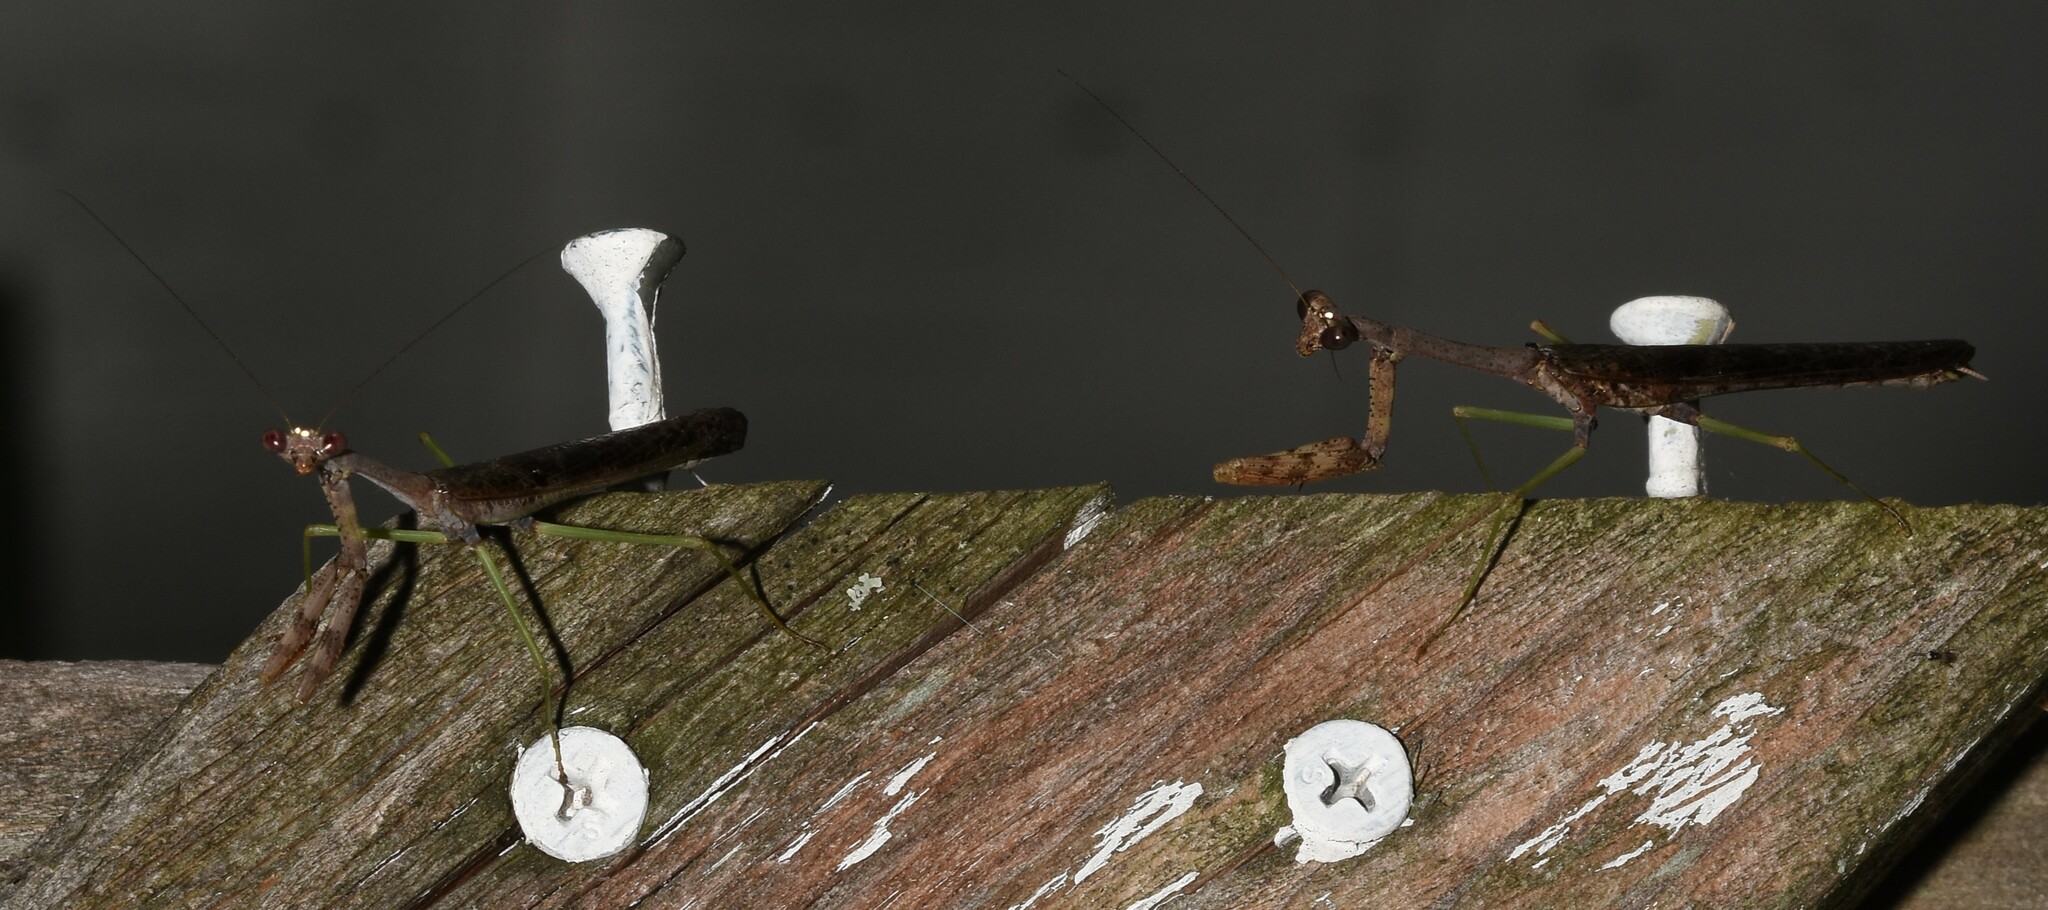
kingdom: Animalia
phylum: Arthropoda
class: Insecta
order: Mantodea
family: Mantidae
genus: Stagmomantis
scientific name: Stagmomantis carolina
